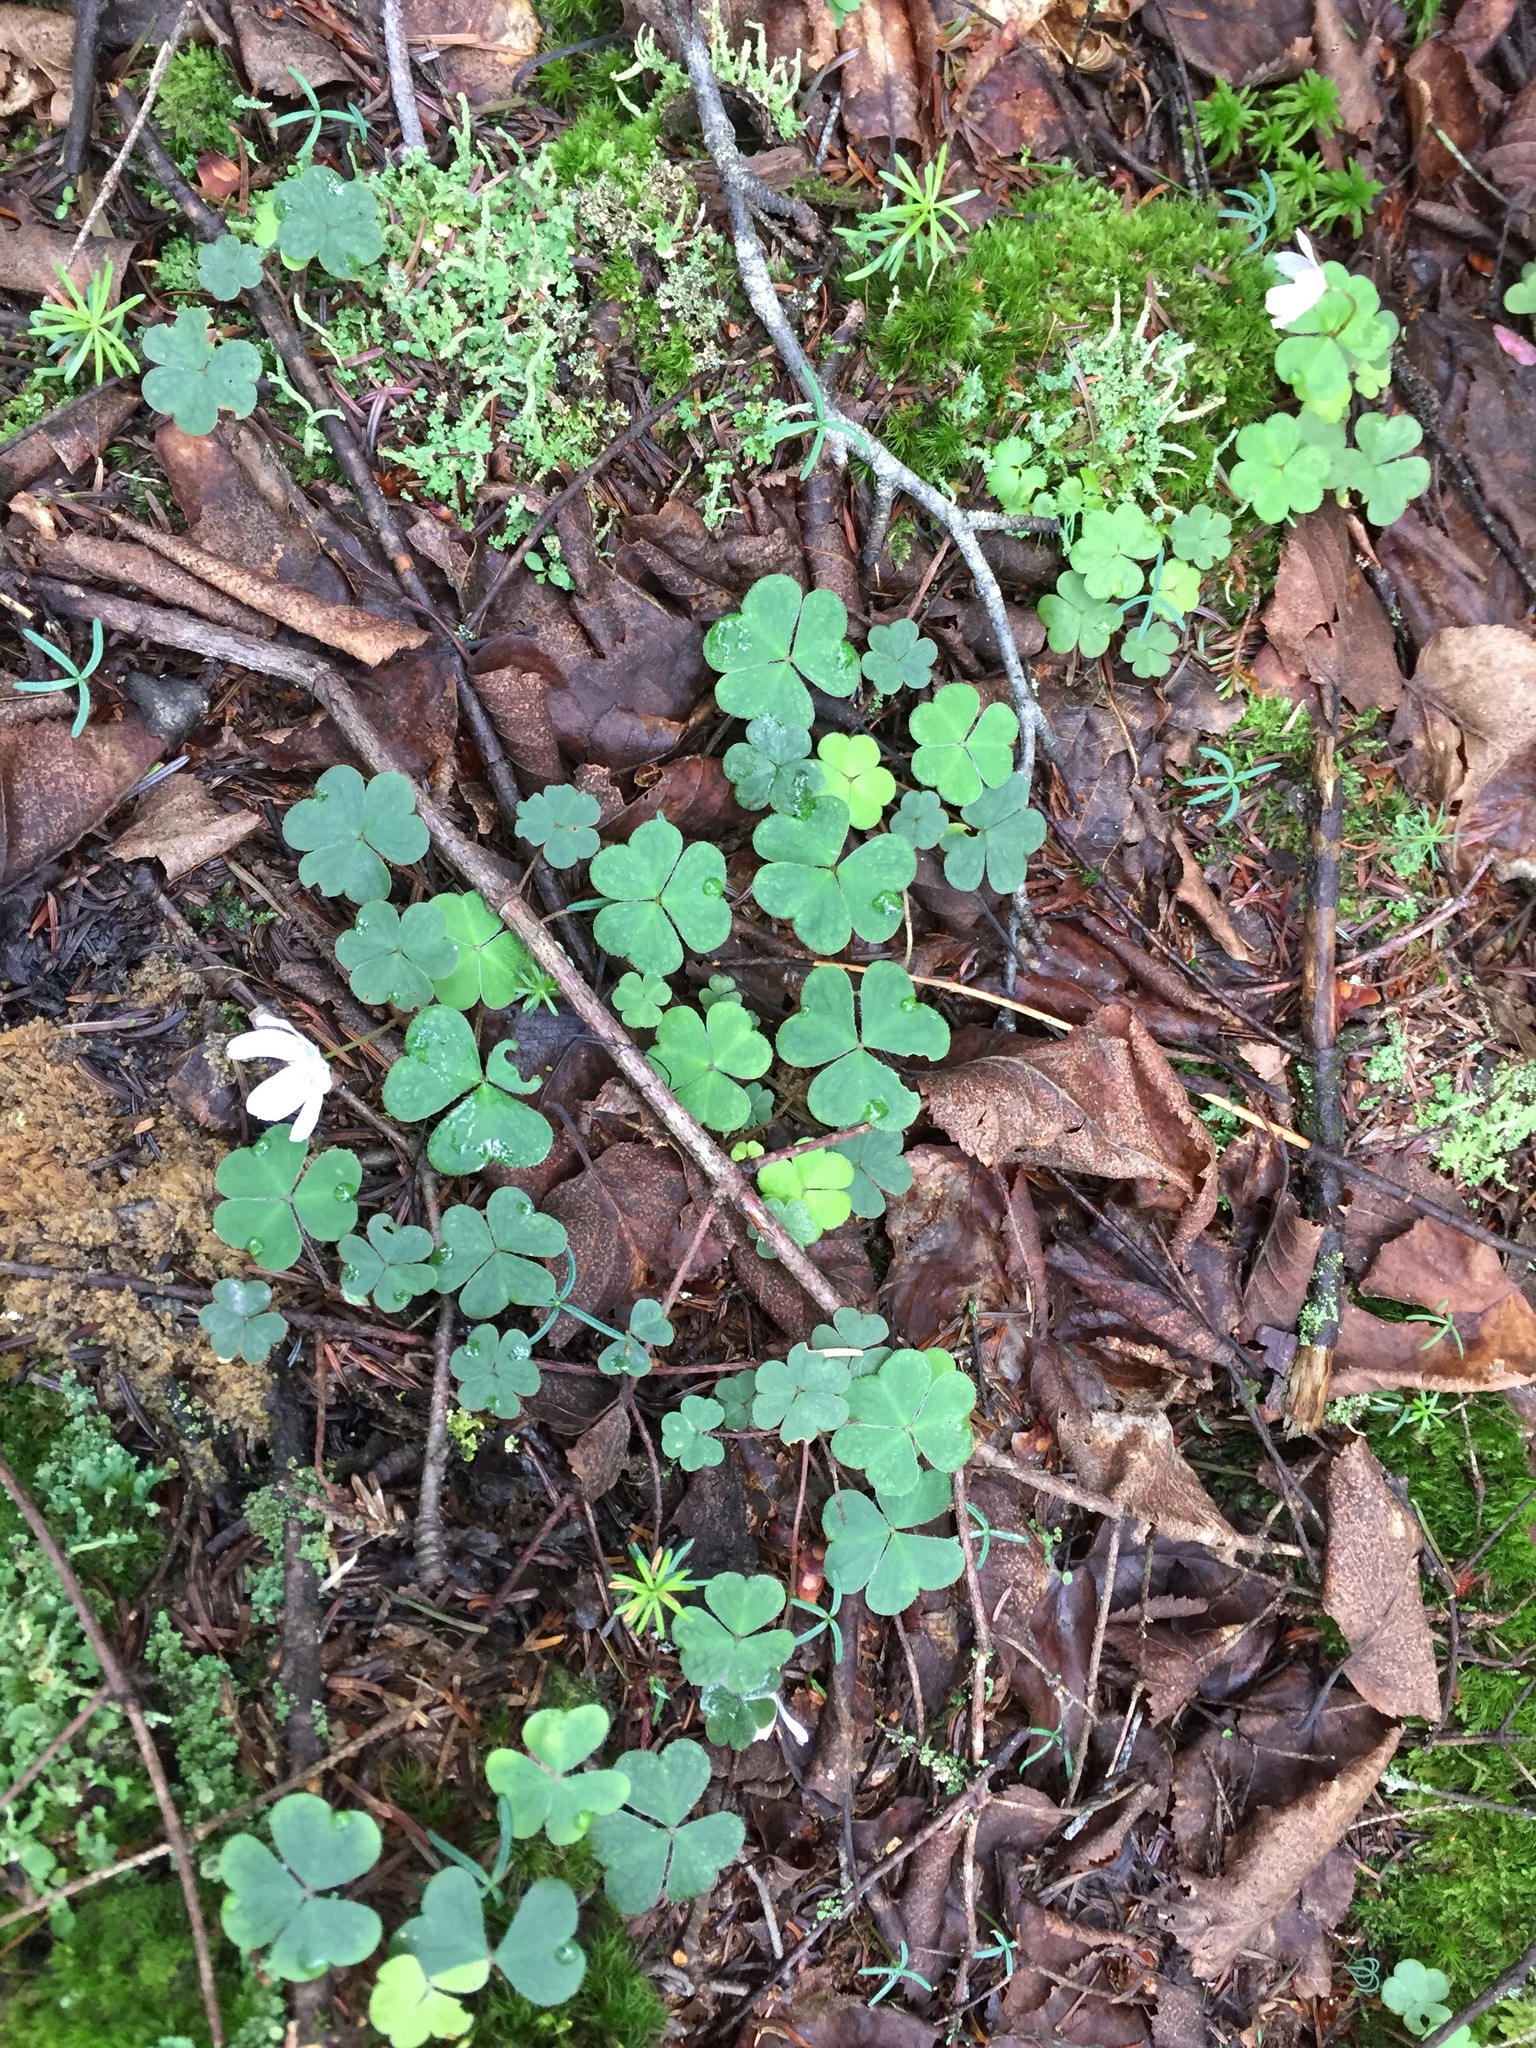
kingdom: Plantae
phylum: Tracheophyta
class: Magnoliopsida
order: Oxalidales
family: Oxalidaceae
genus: Oxalis
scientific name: Oxalis montana
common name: American wood-sorrel
